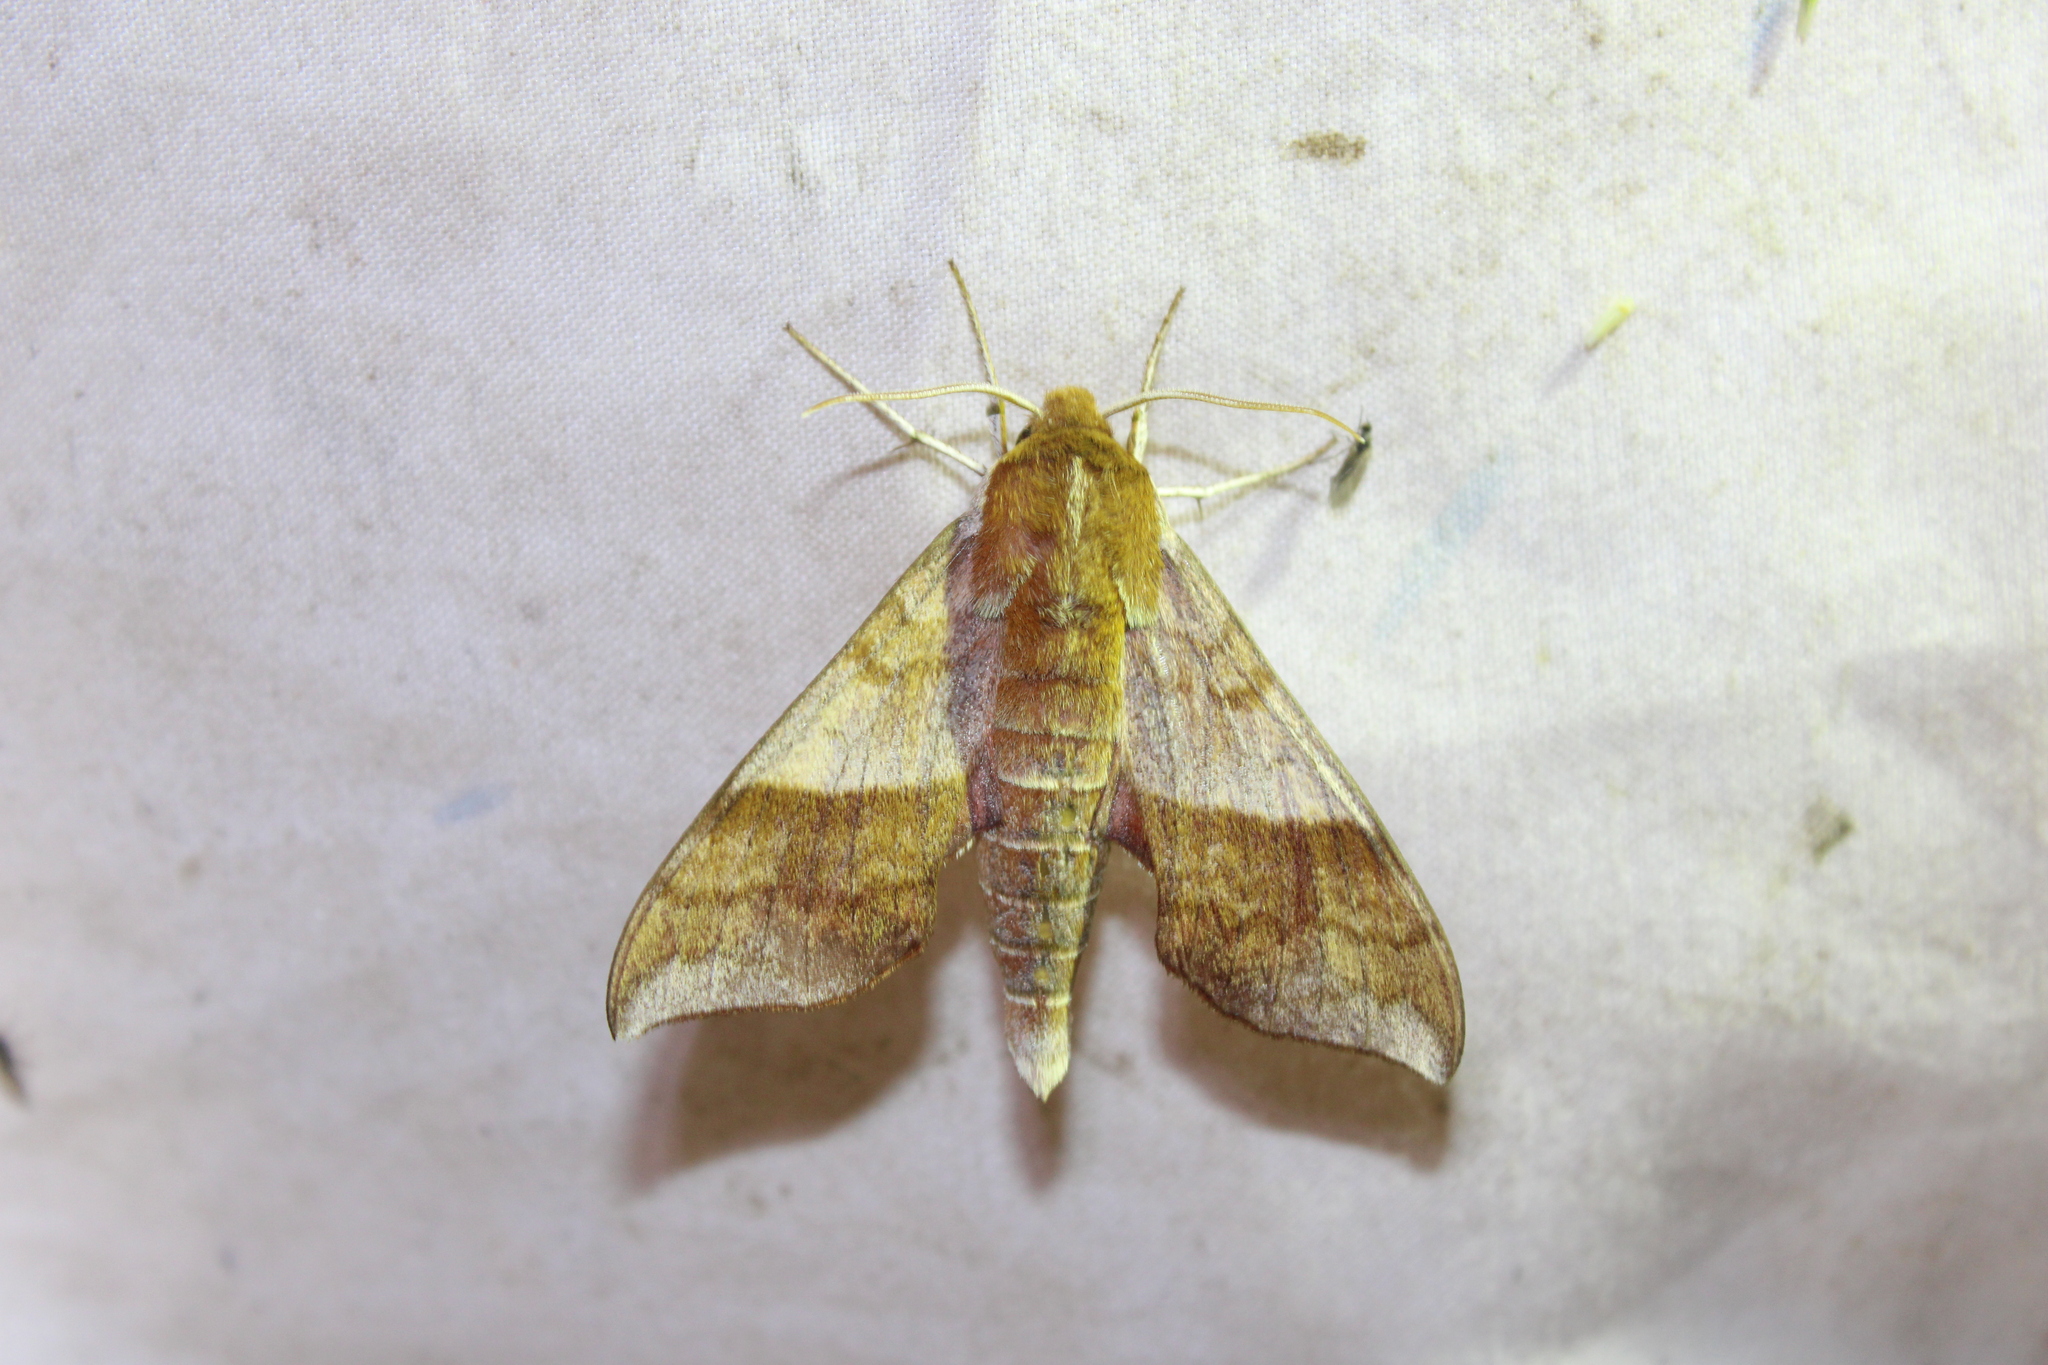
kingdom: Animalia
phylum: Arthropoda
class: Insecta
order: Lepidoptera
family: Sphingidae
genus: Darapsa
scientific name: Darapsa choerilus
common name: Azalea sphinx
